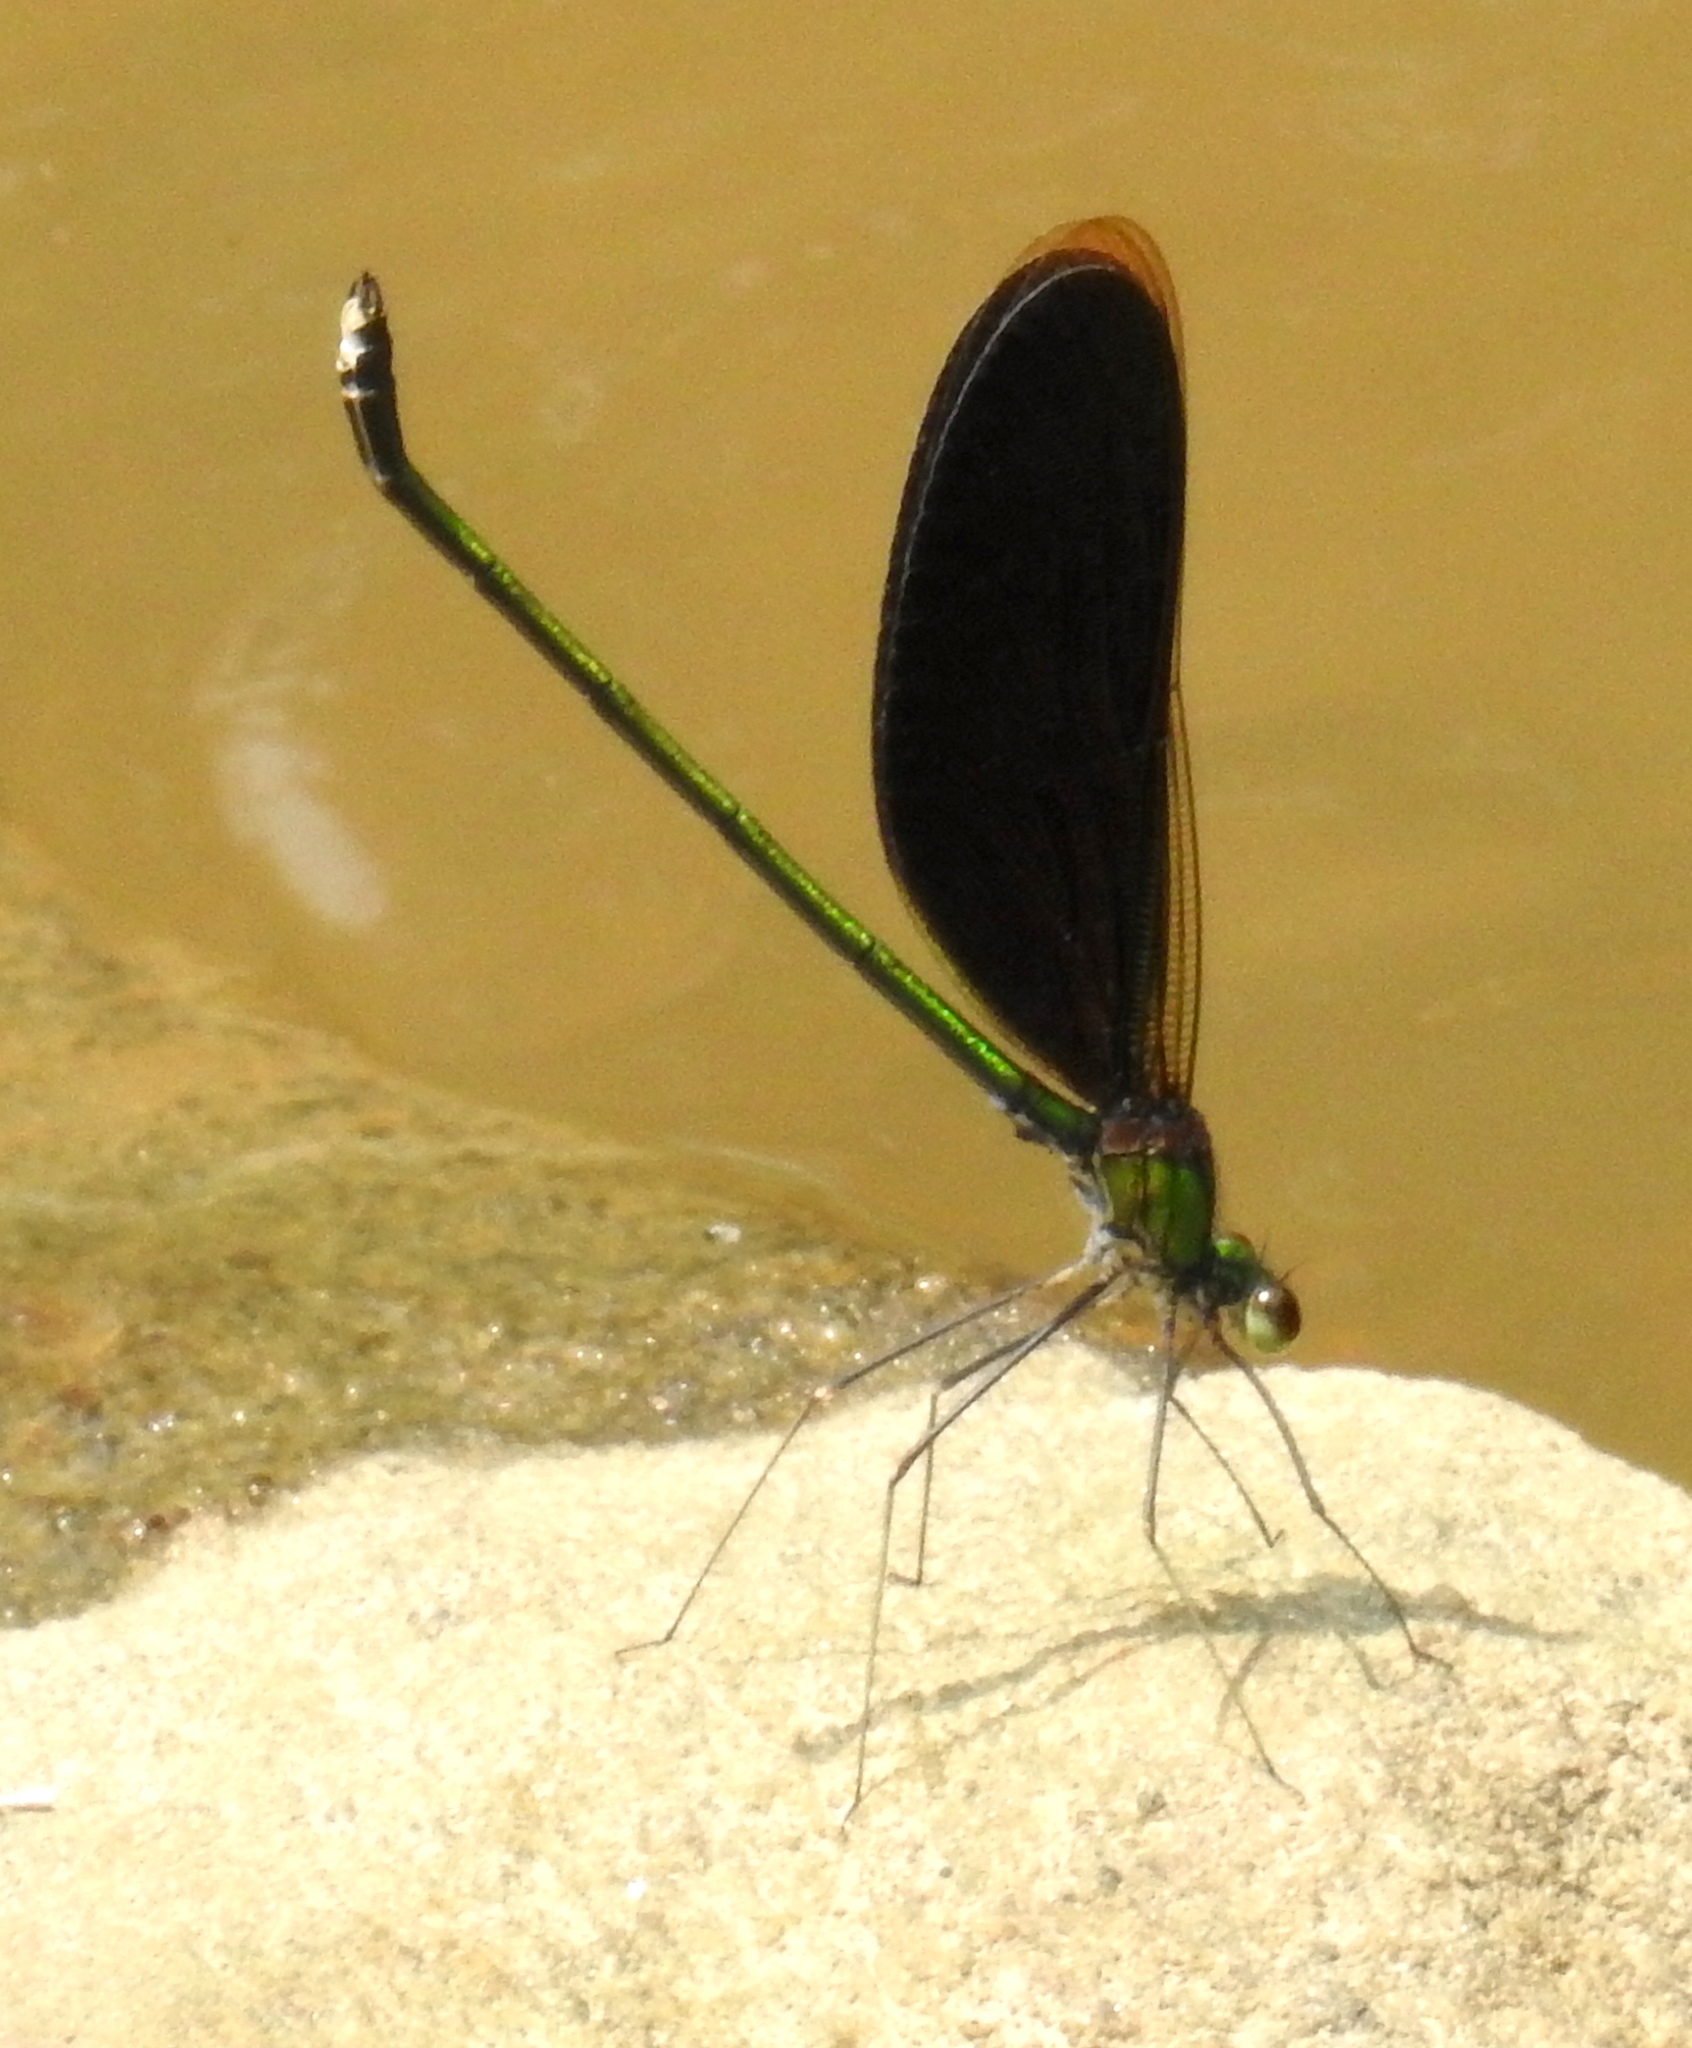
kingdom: Animalia
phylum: Arthropoda
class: Insecta
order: Odonata
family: Calopterygidae
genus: Neurobasis
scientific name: Neurobasis chinensis
